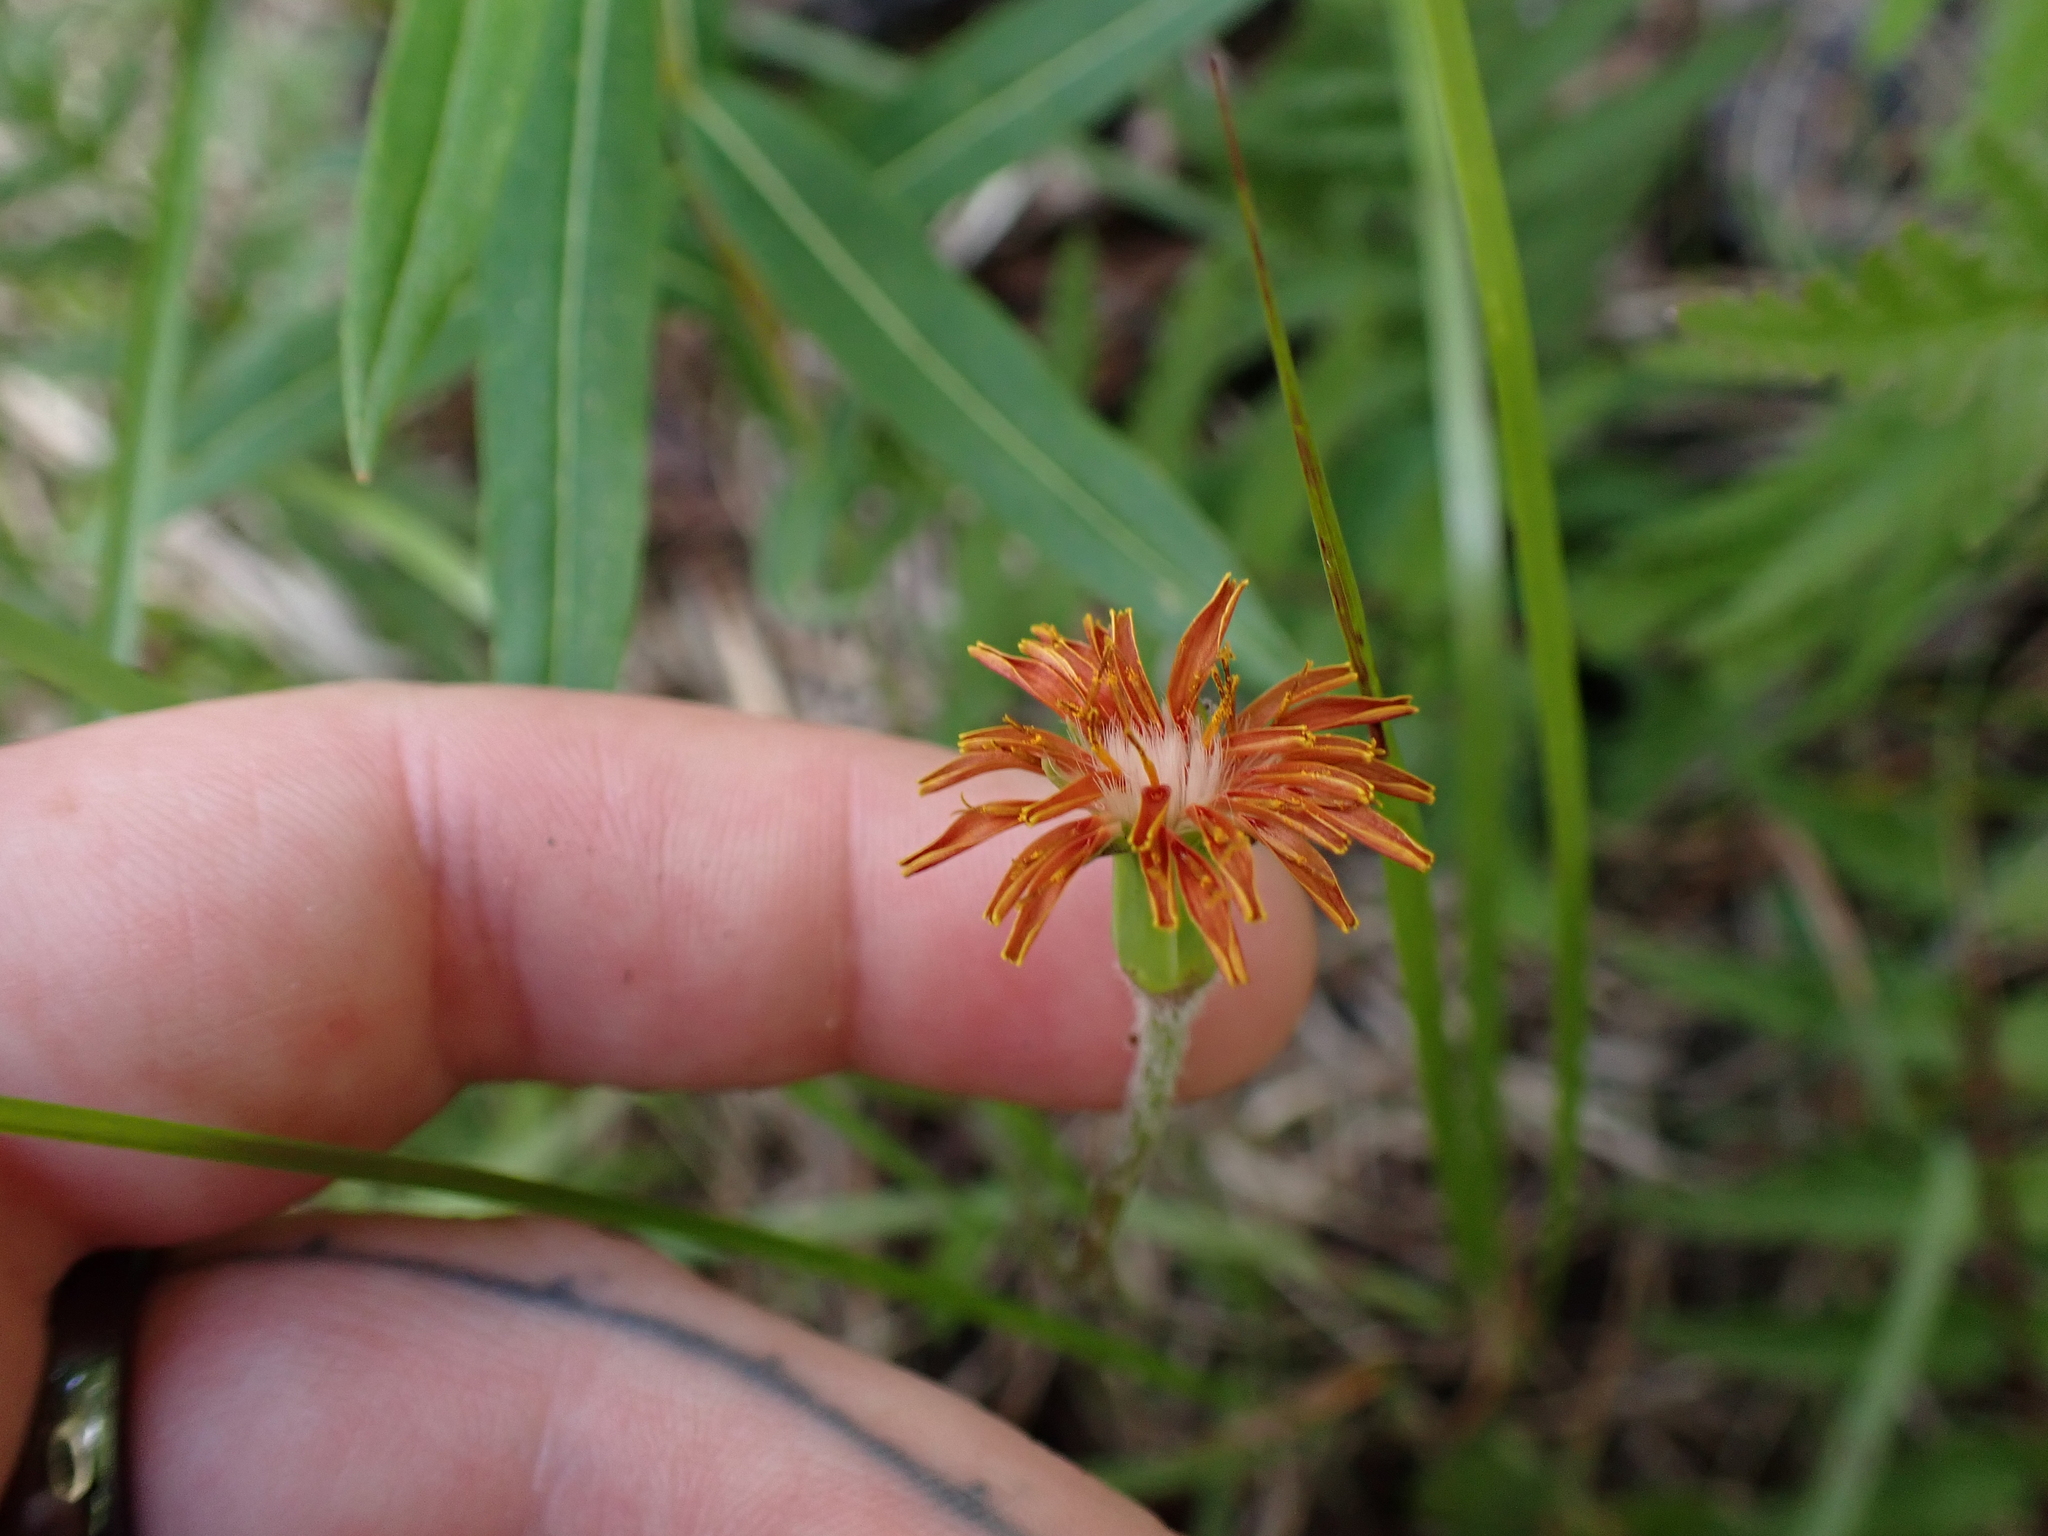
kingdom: Plantae
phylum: Tracheophyta
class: Magnoliopsida
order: Asterales
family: Asteraceae
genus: Agoseris
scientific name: Agoseris aurantiaca
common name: Mountain agoseris
